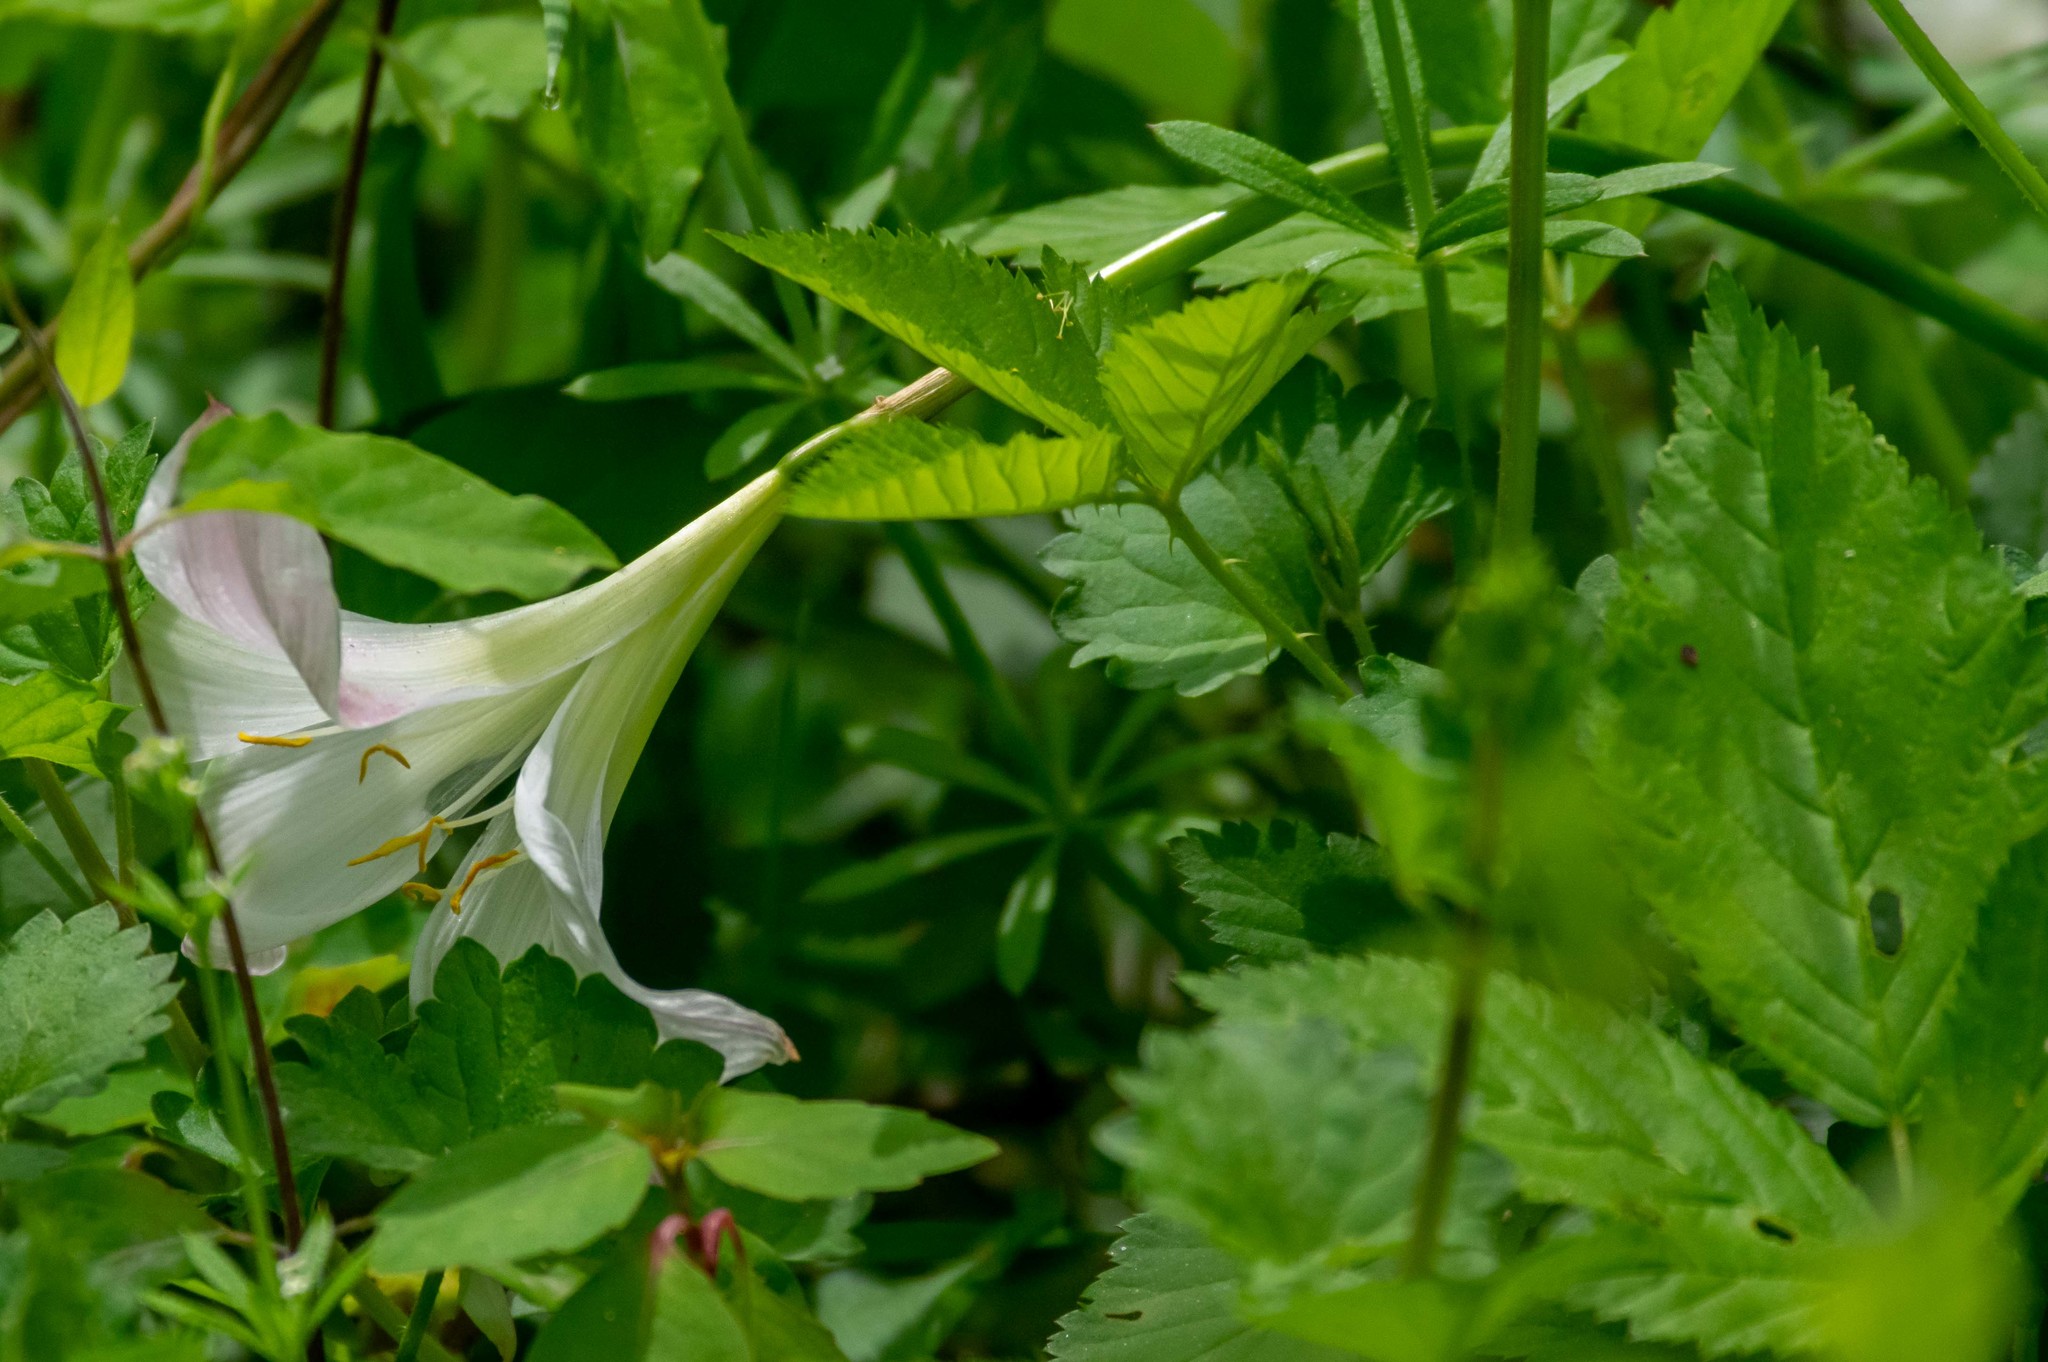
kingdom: Plantae
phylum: Tracheophyta
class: Liliopsida
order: Asparagales
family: Amaryllidaceae
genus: Zephyranthes
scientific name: Zephyranthes atamasco
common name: Atamasco lily
